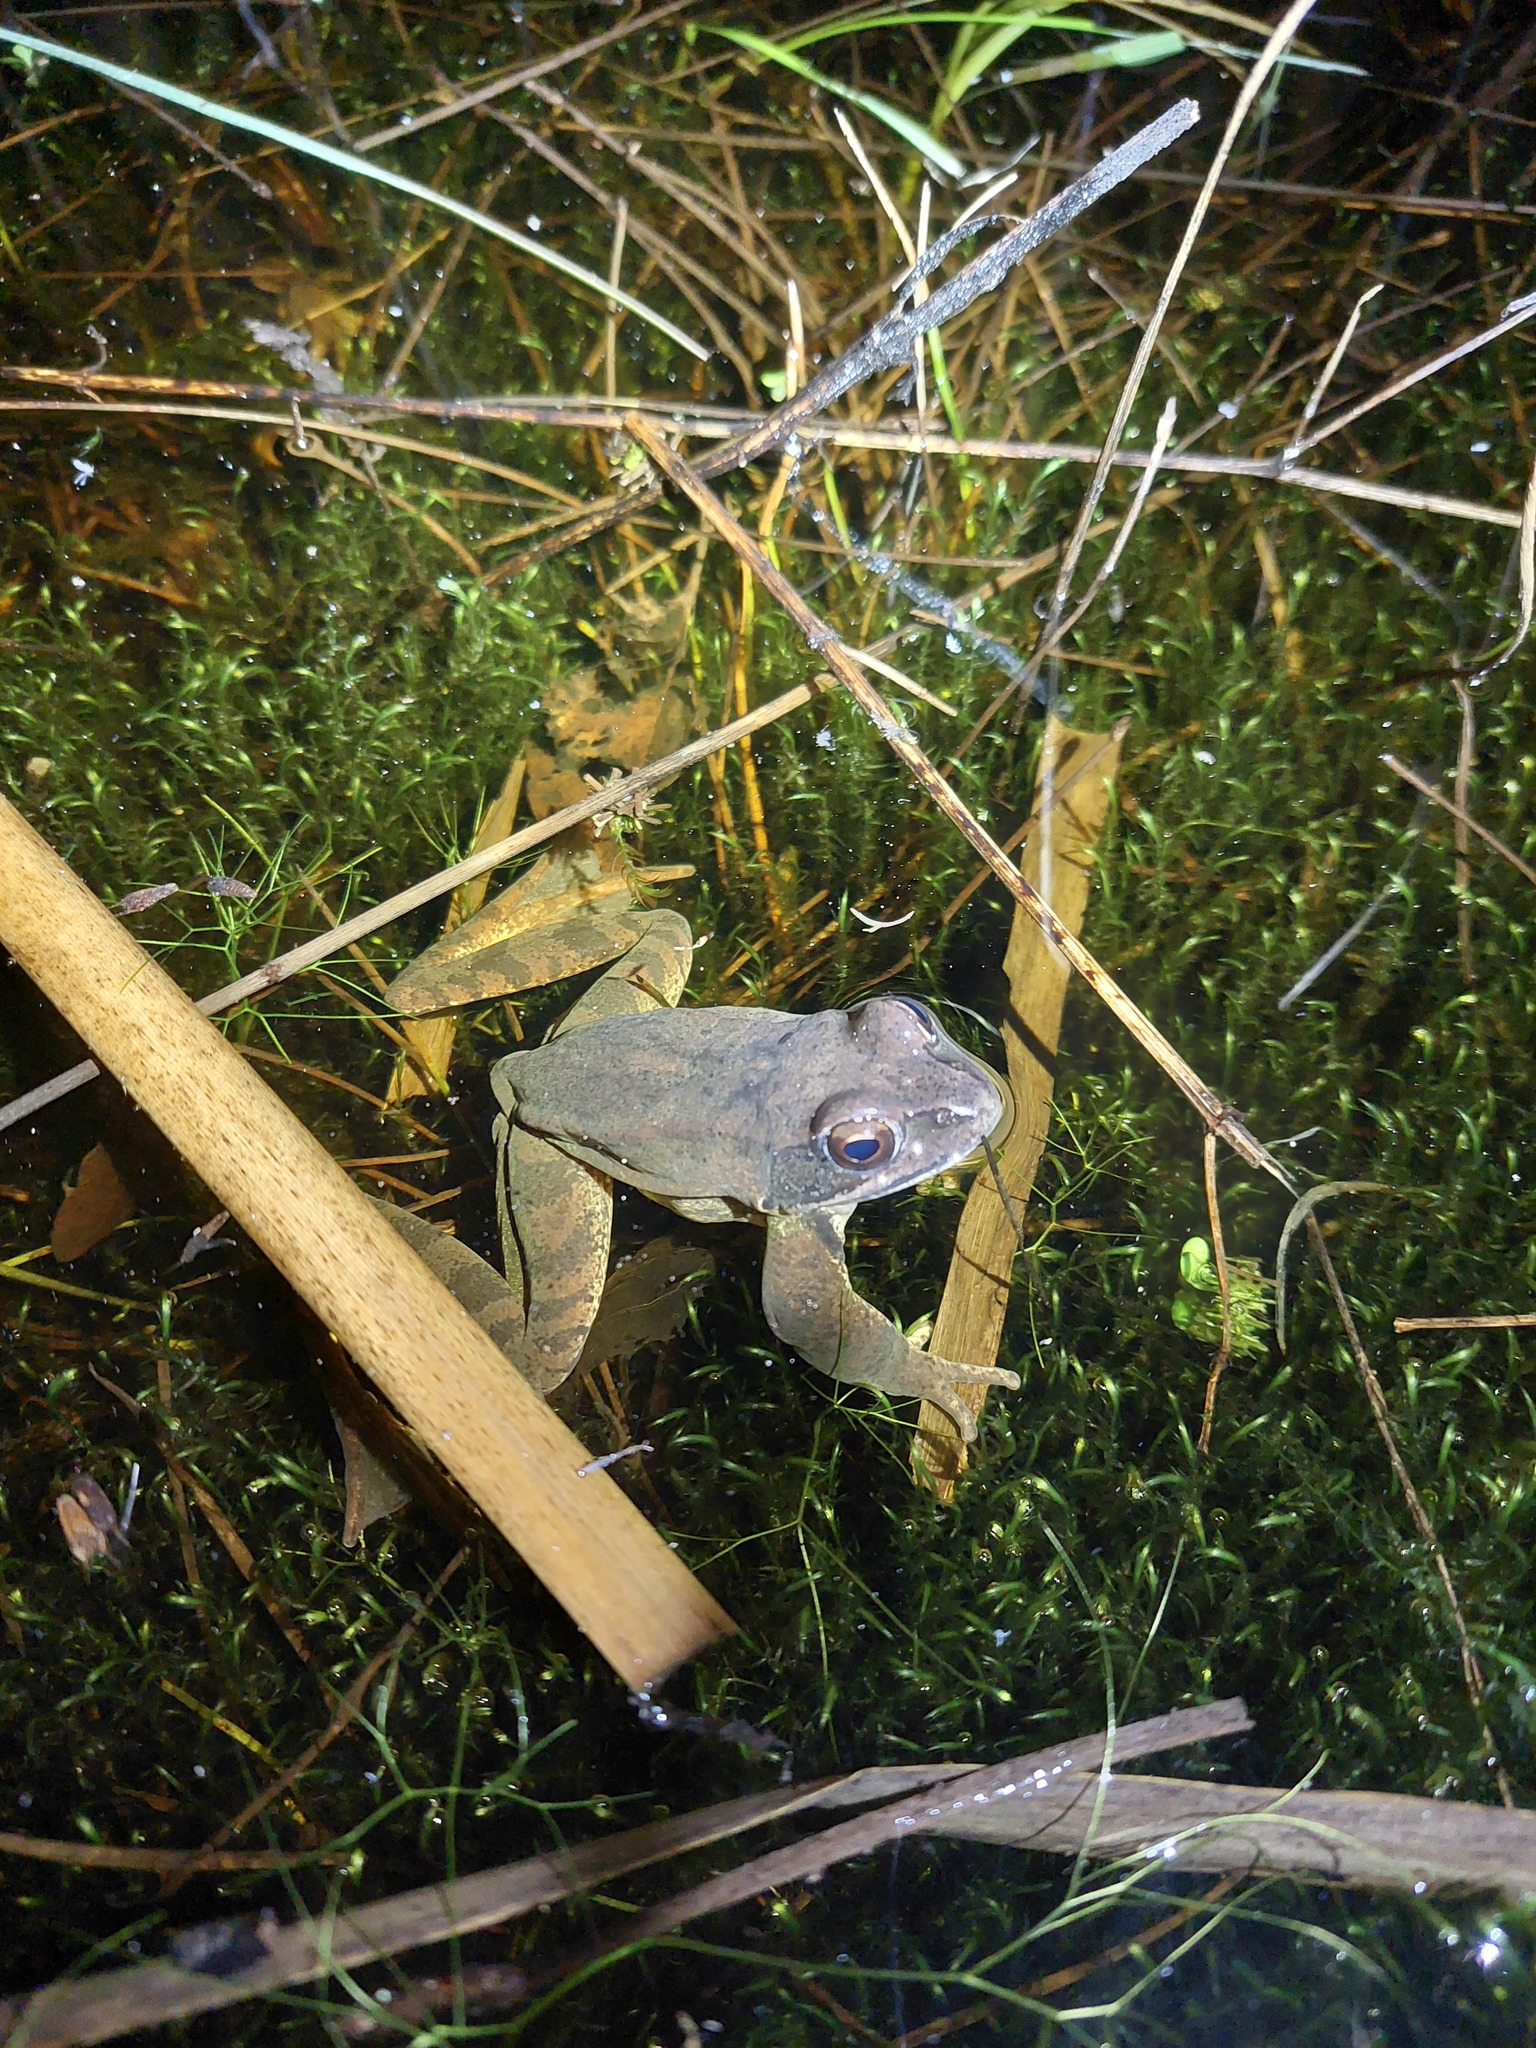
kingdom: Animalia
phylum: Chordata
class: Amphibia
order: Anura
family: Ranidae
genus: Rana
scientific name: Rana dalmatina
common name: Agile frog
